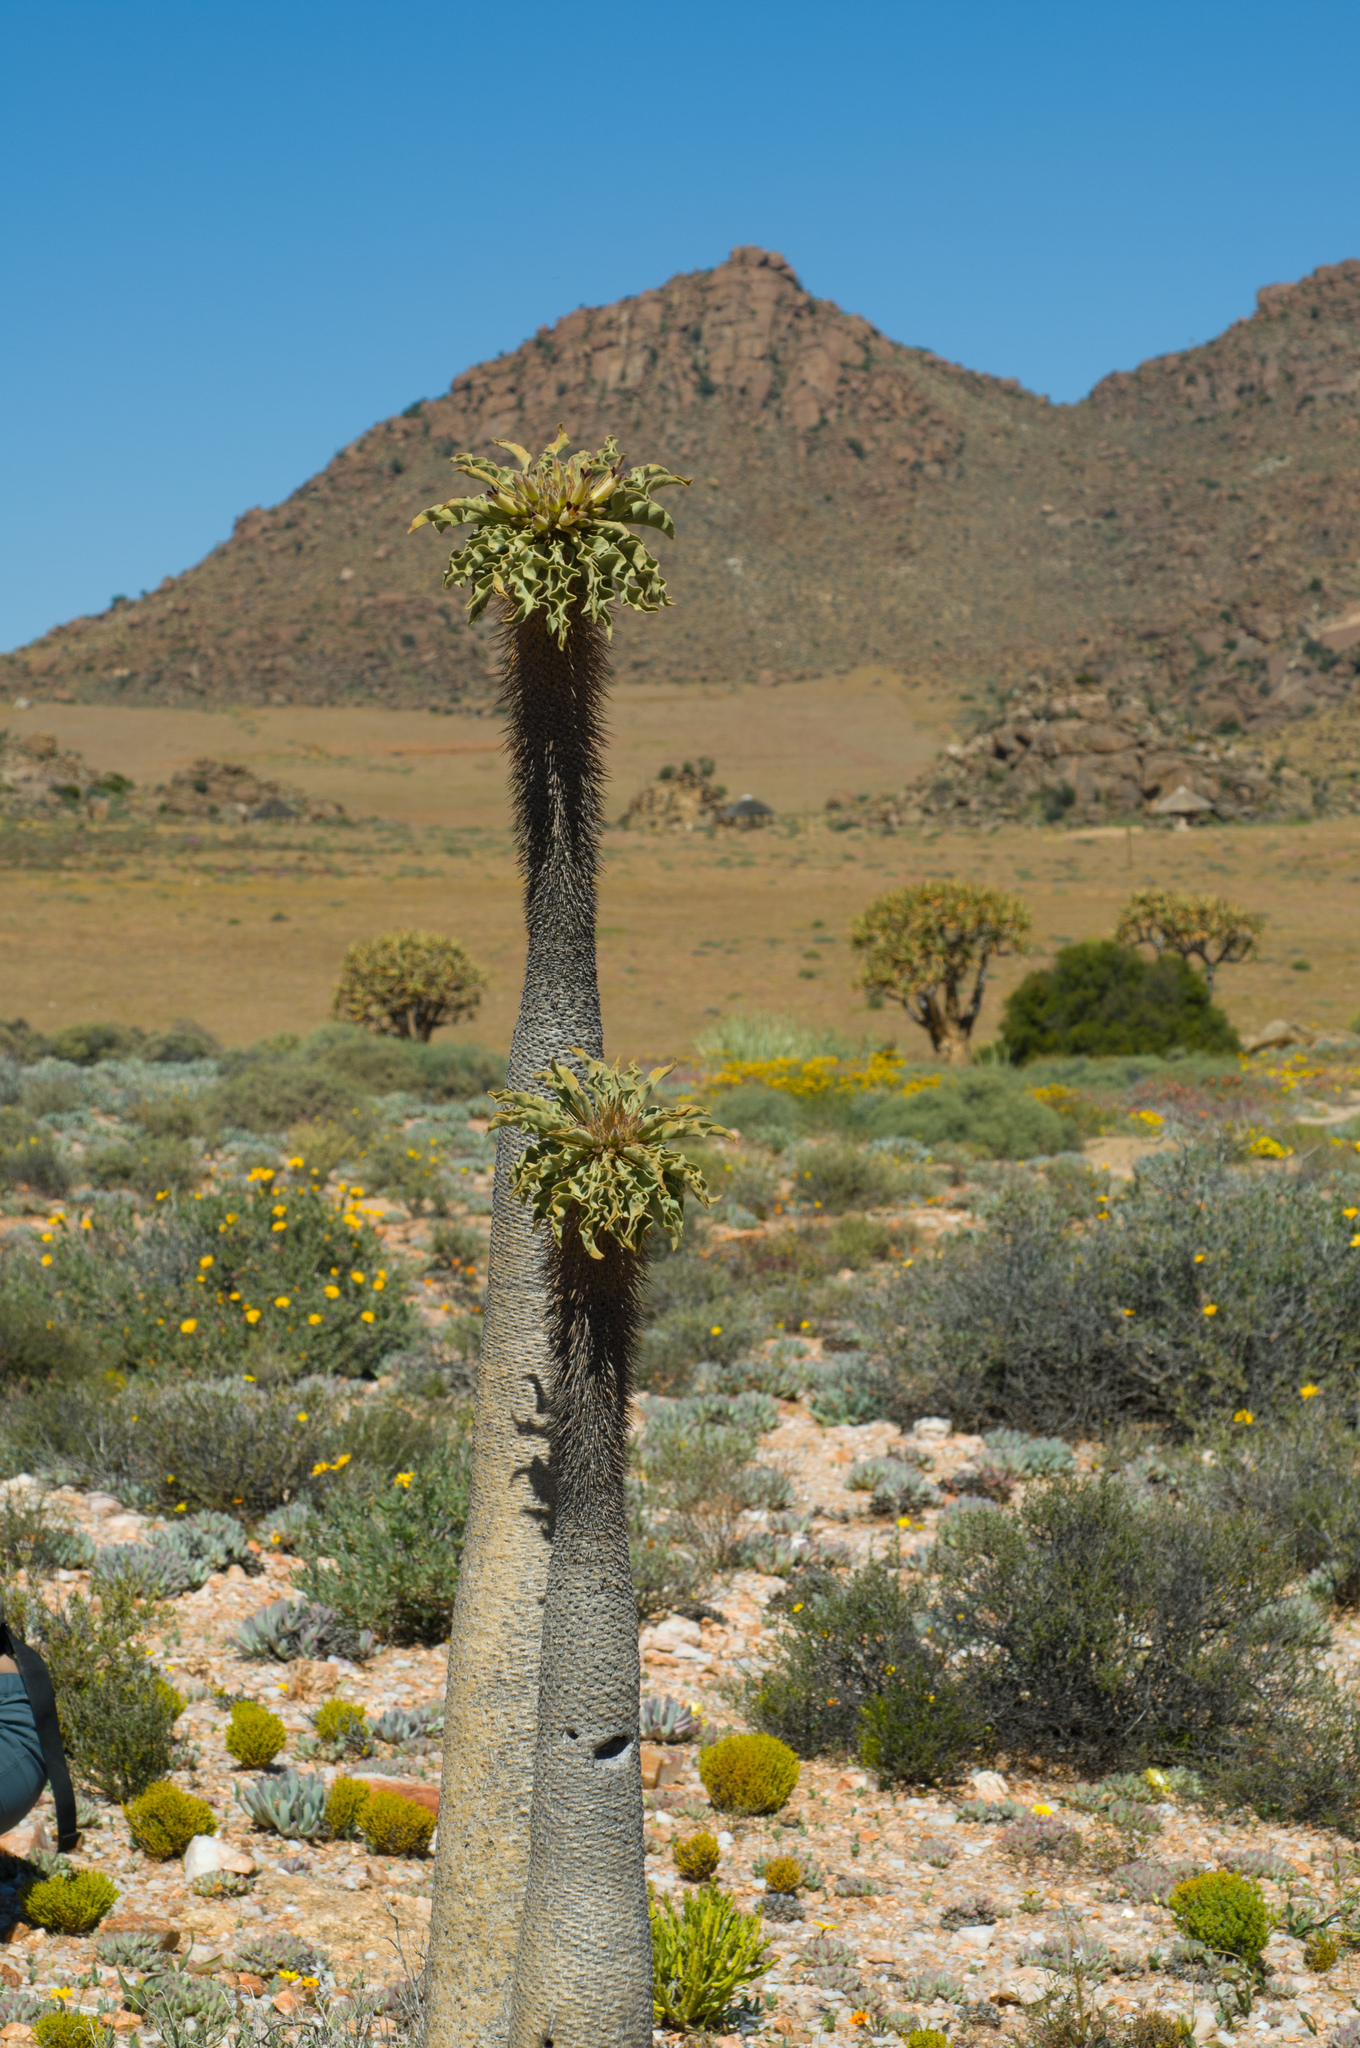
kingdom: Plantae
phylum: Tracheophyta
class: Magnoliopsida
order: Gentianales
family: Apocynaceae
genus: Pachypodium
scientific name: Pachypodium namaquanum
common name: Elephant's trunk
